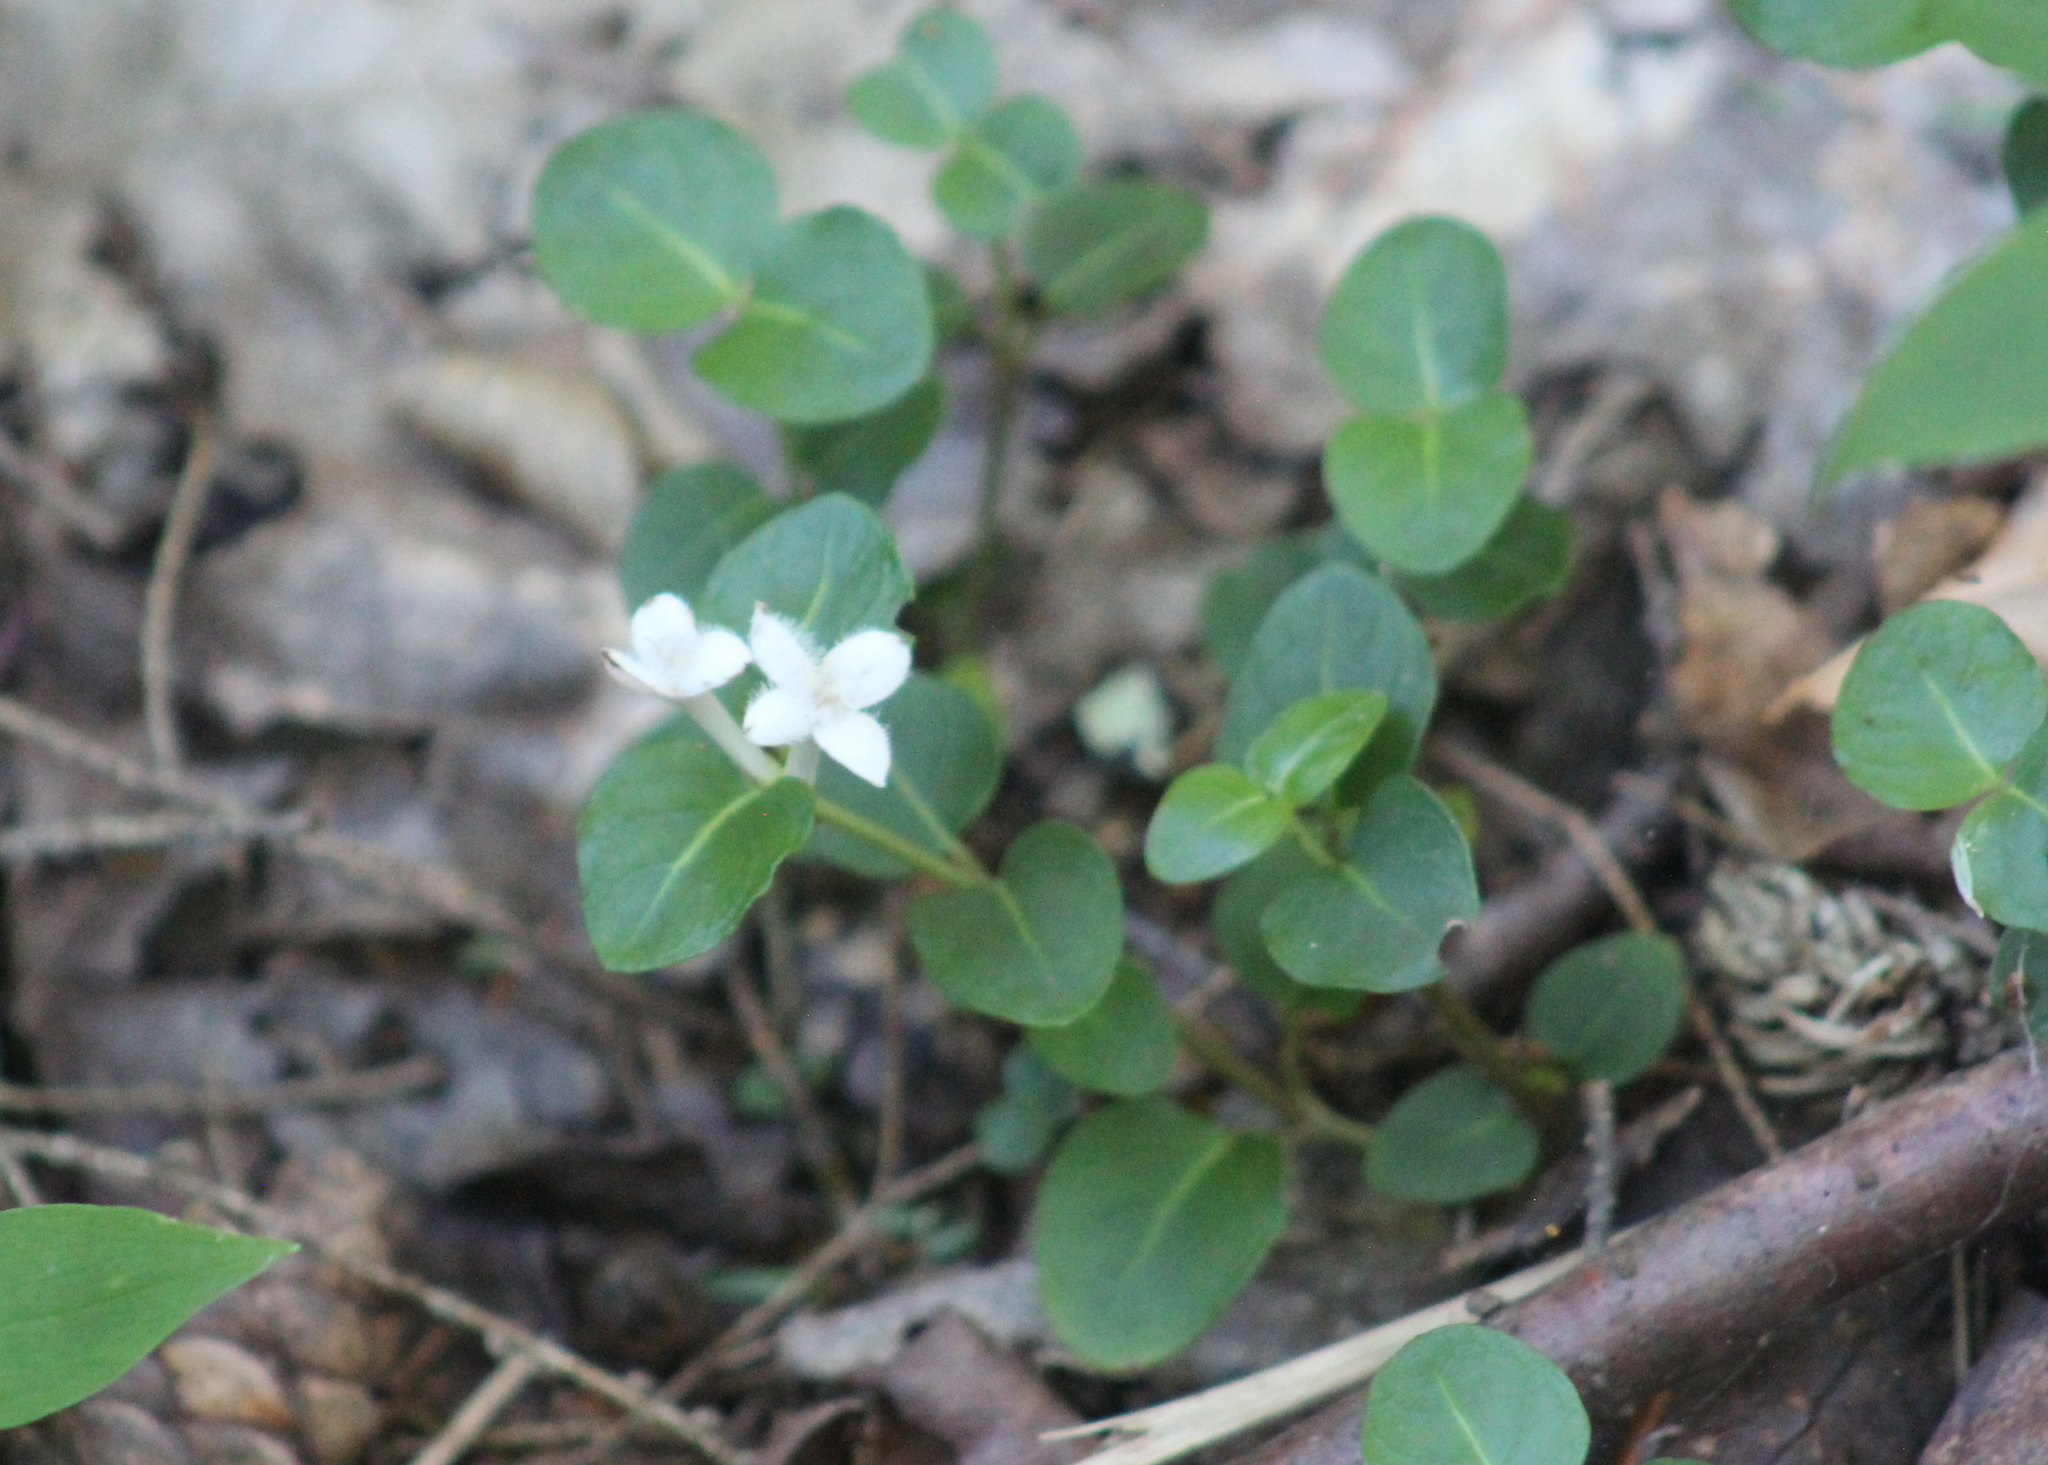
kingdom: Plantae
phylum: Tracheophyta
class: Magnoliopsida
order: Gentianales
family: Rubiaceae
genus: Mitchella
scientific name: Mitchella repens
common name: Partridge-berry
